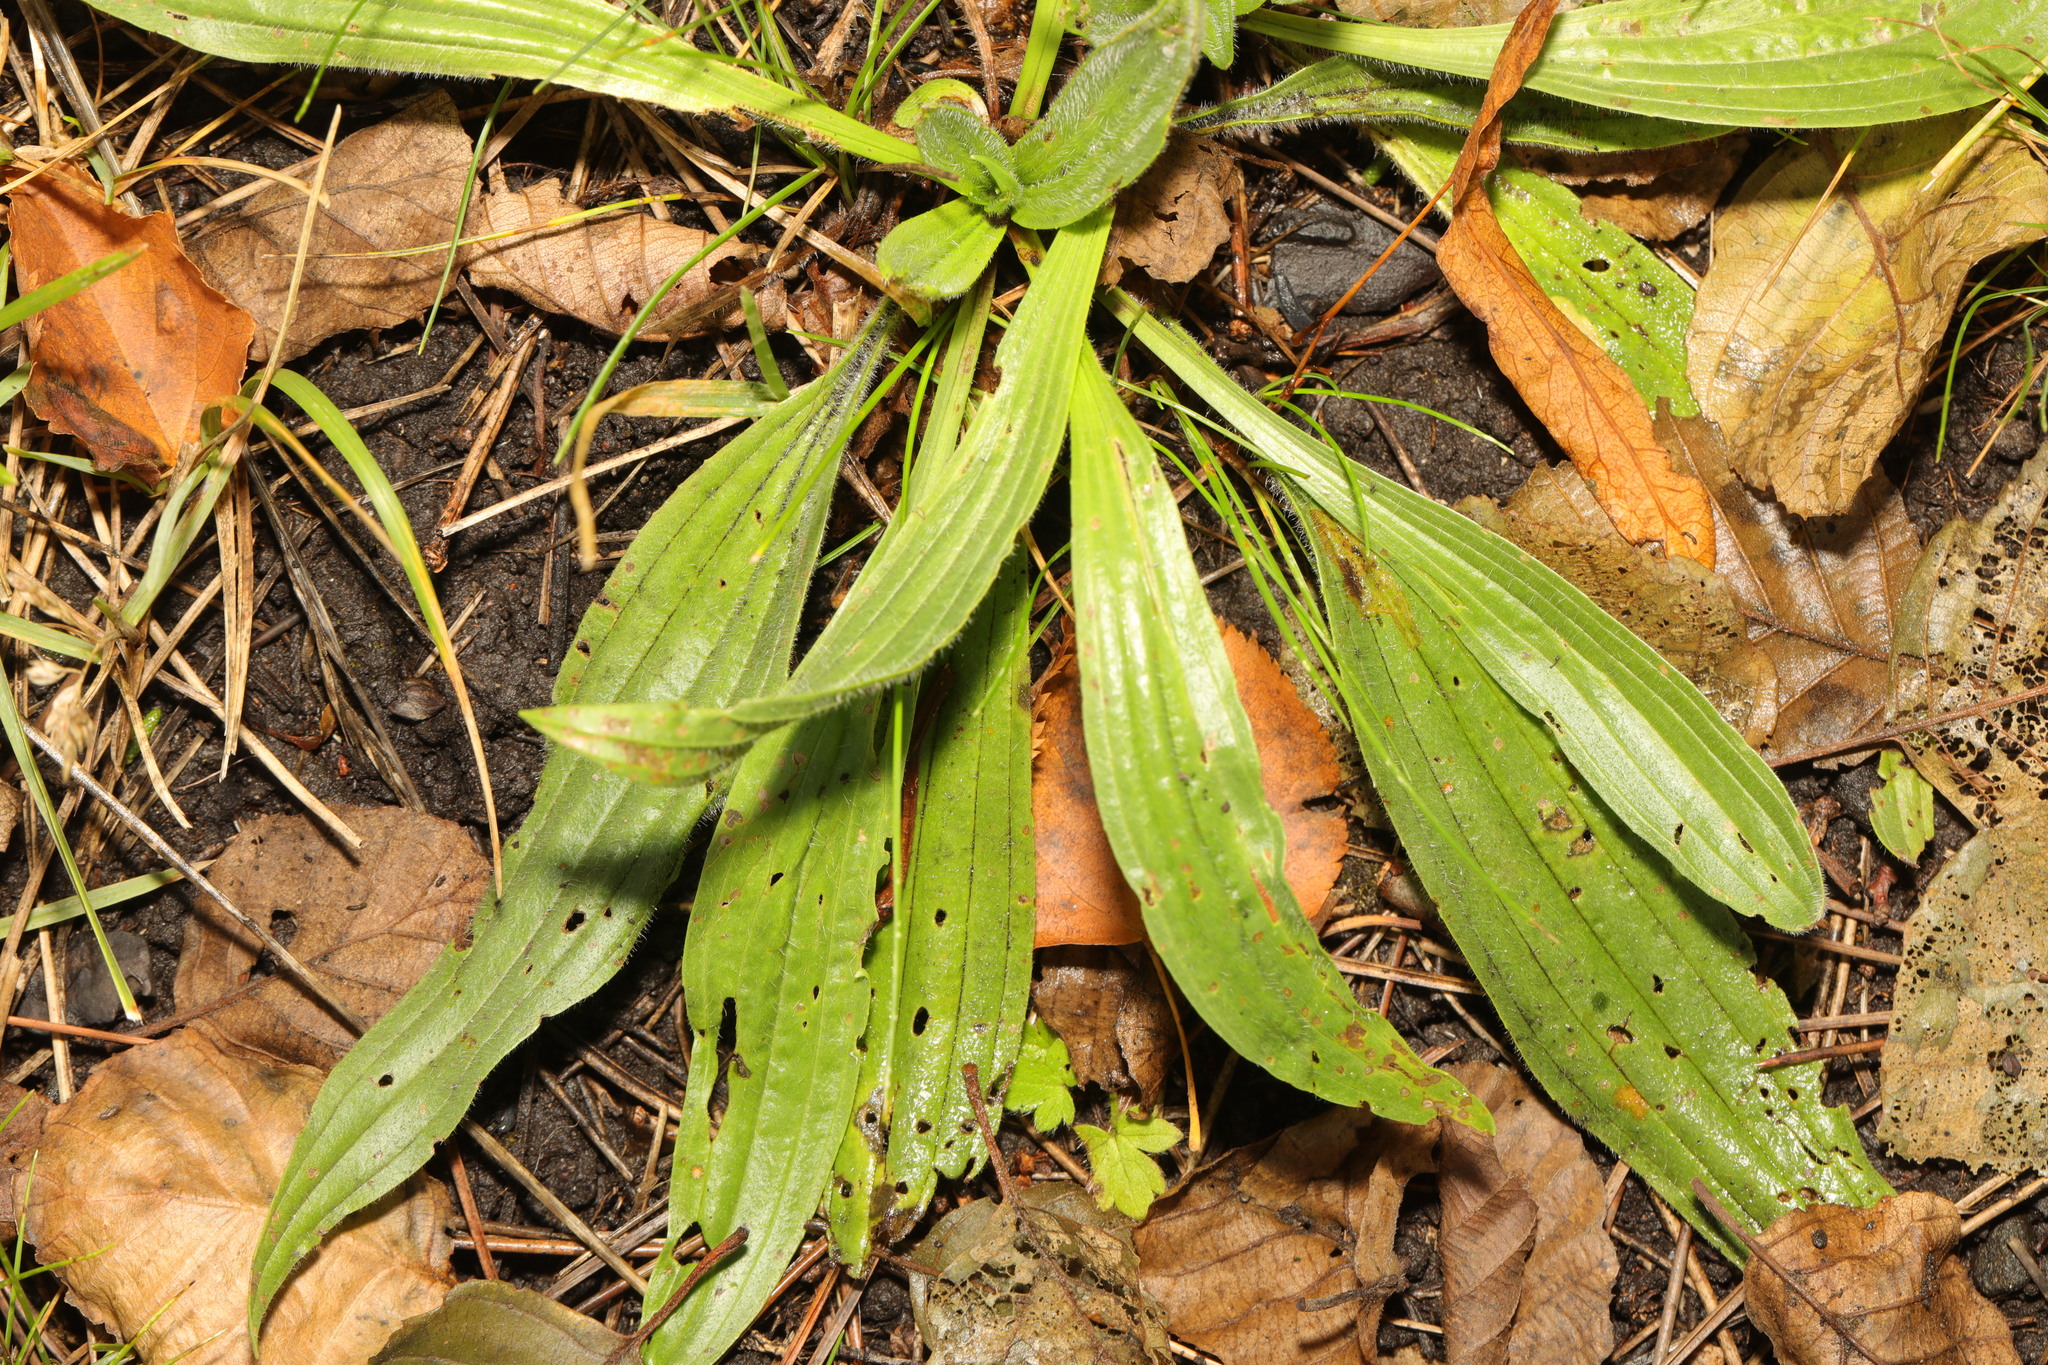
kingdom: Plantae
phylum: Tracheophyta
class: Magnoliopsida
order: Lamiales
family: Plantaginaceae
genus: Plantago
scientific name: Plantago lanceolata
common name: Ribwort plantain
